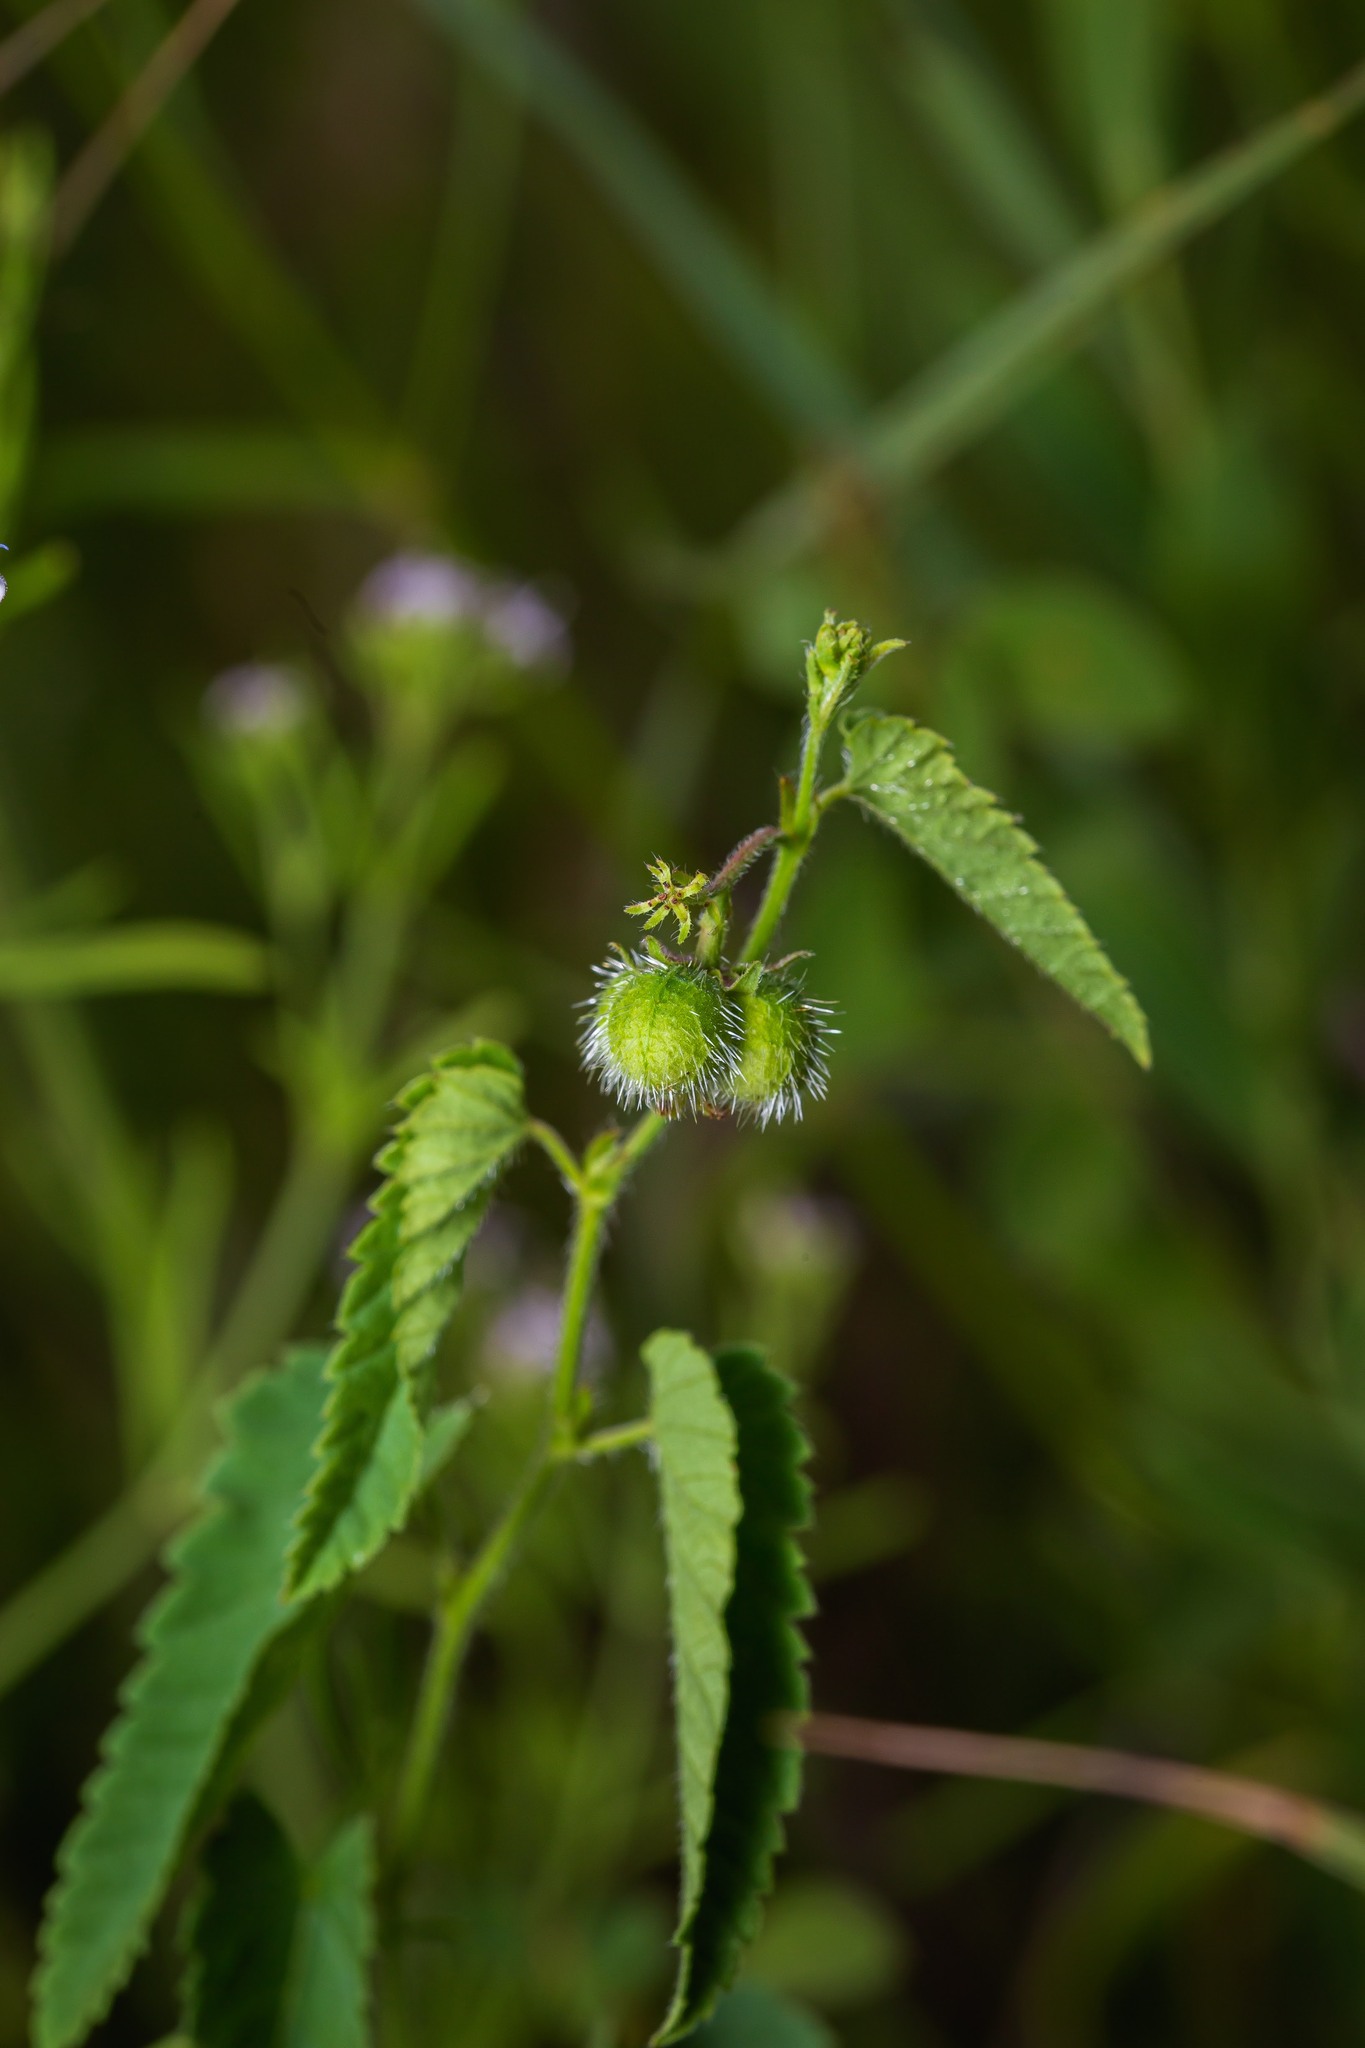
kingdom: Plantae
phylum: Tracheophyta
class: Magnoliopsida
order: Malpighiales
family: Euphorbiaceae
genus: Tragia
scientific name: Tragia betonicifolia
